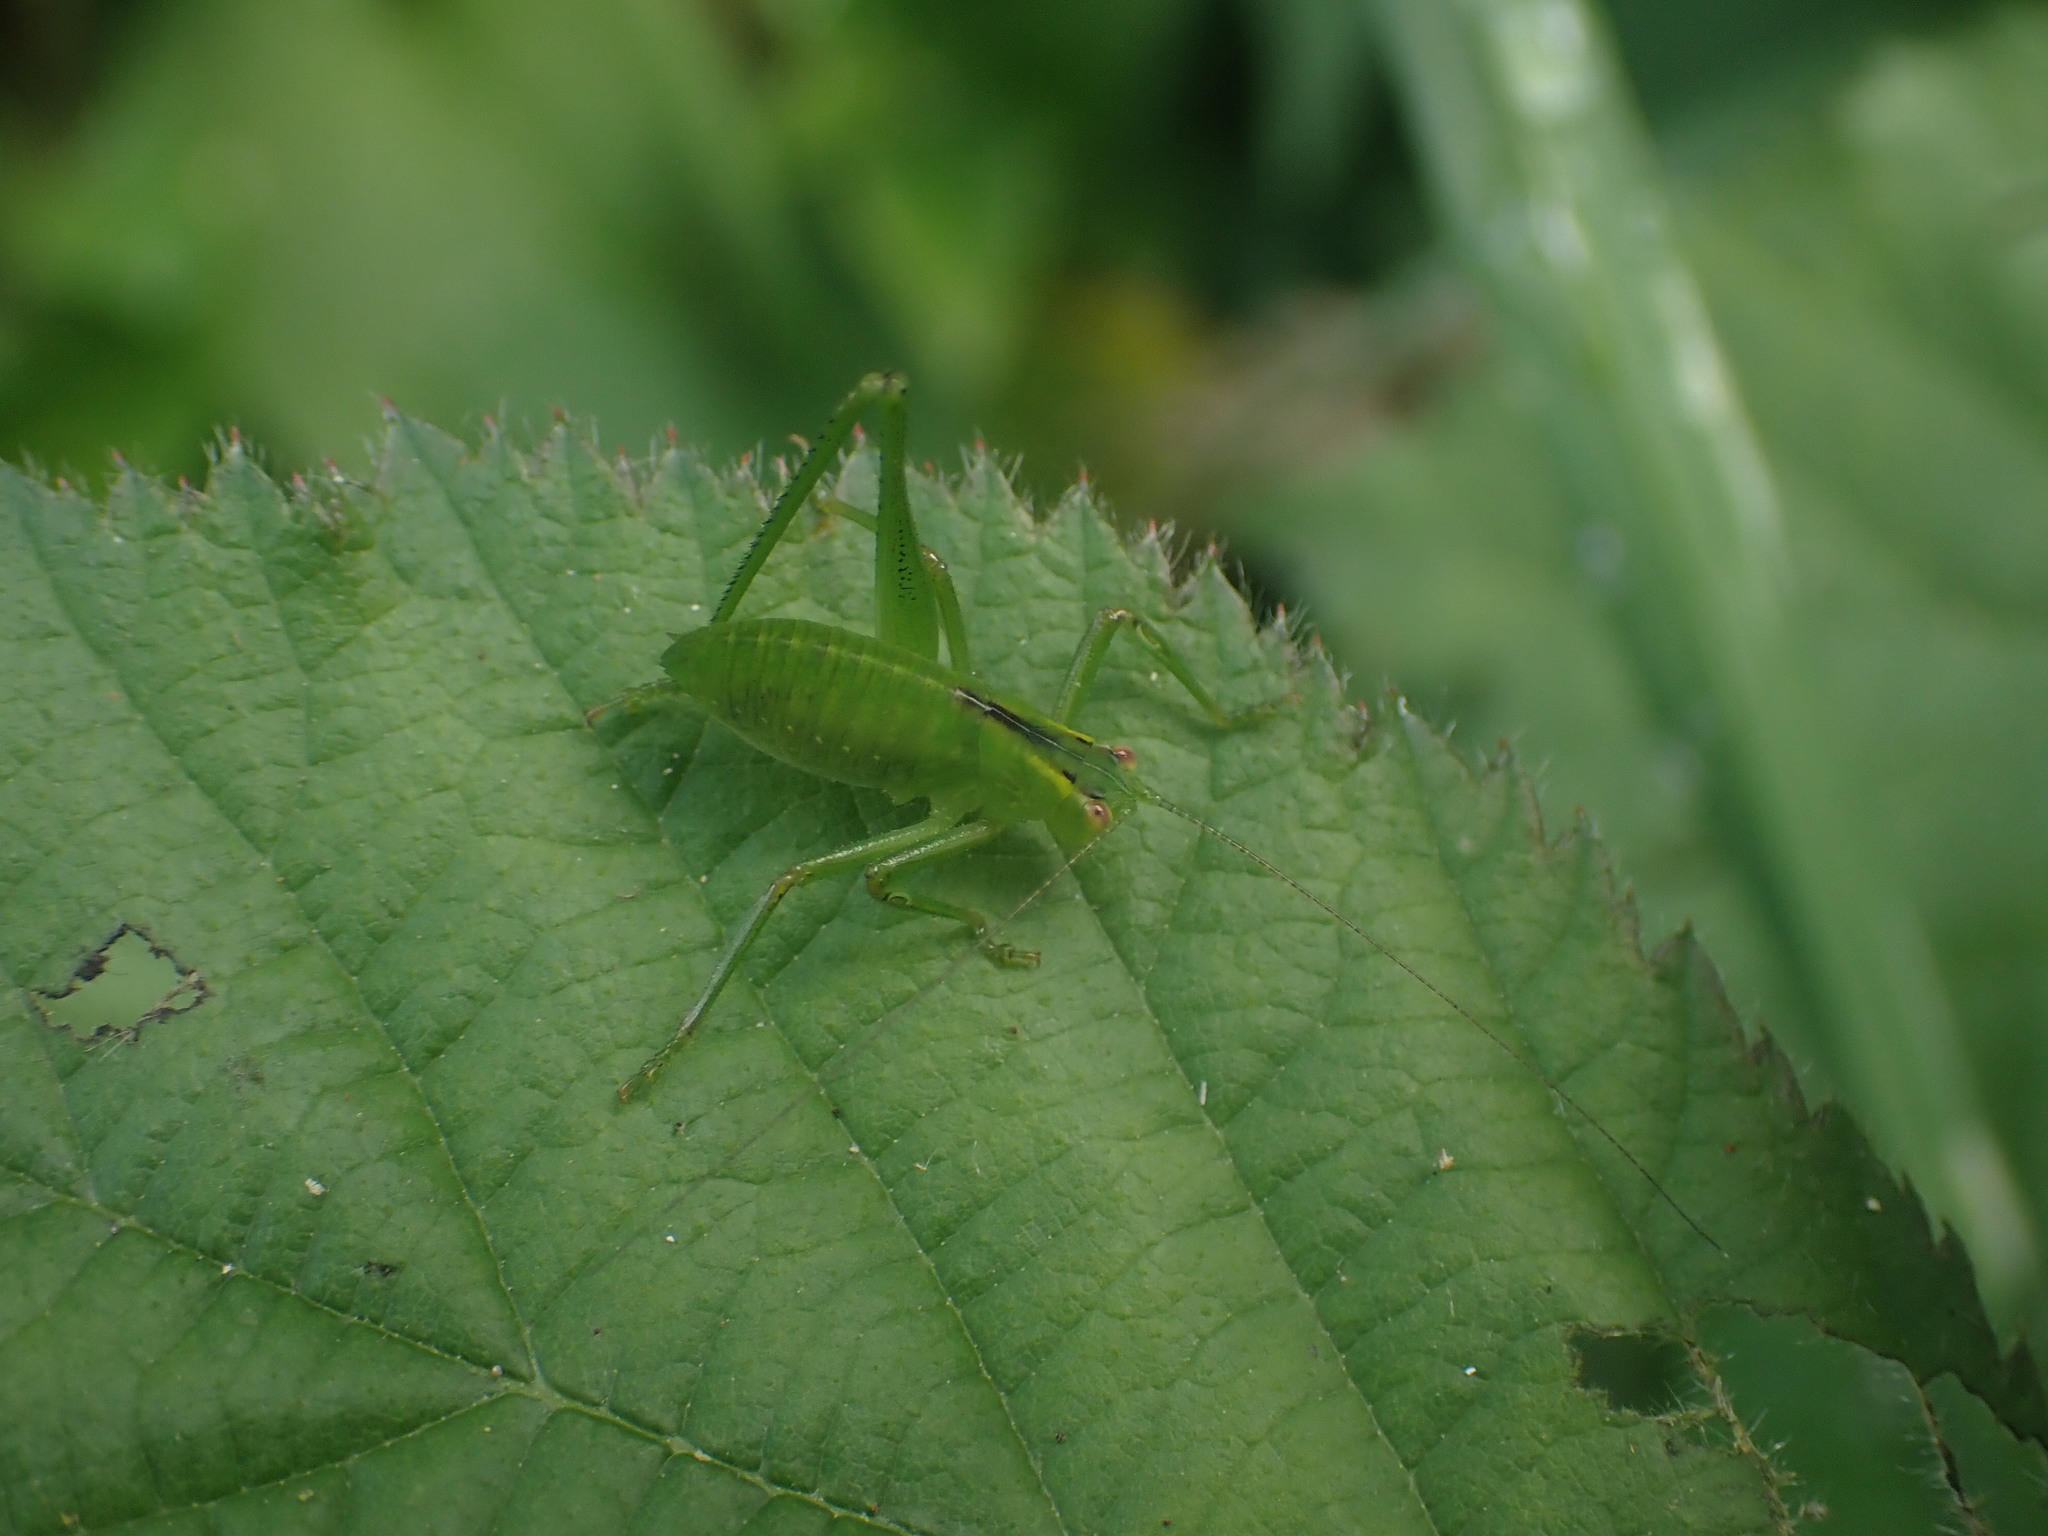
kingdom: Animalia
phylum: Arthropoda
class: Insecta
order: Orthoptera
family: Tettigoniidae
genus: Caedicia
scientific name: Caedicia simplex
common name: Common garden katydid
